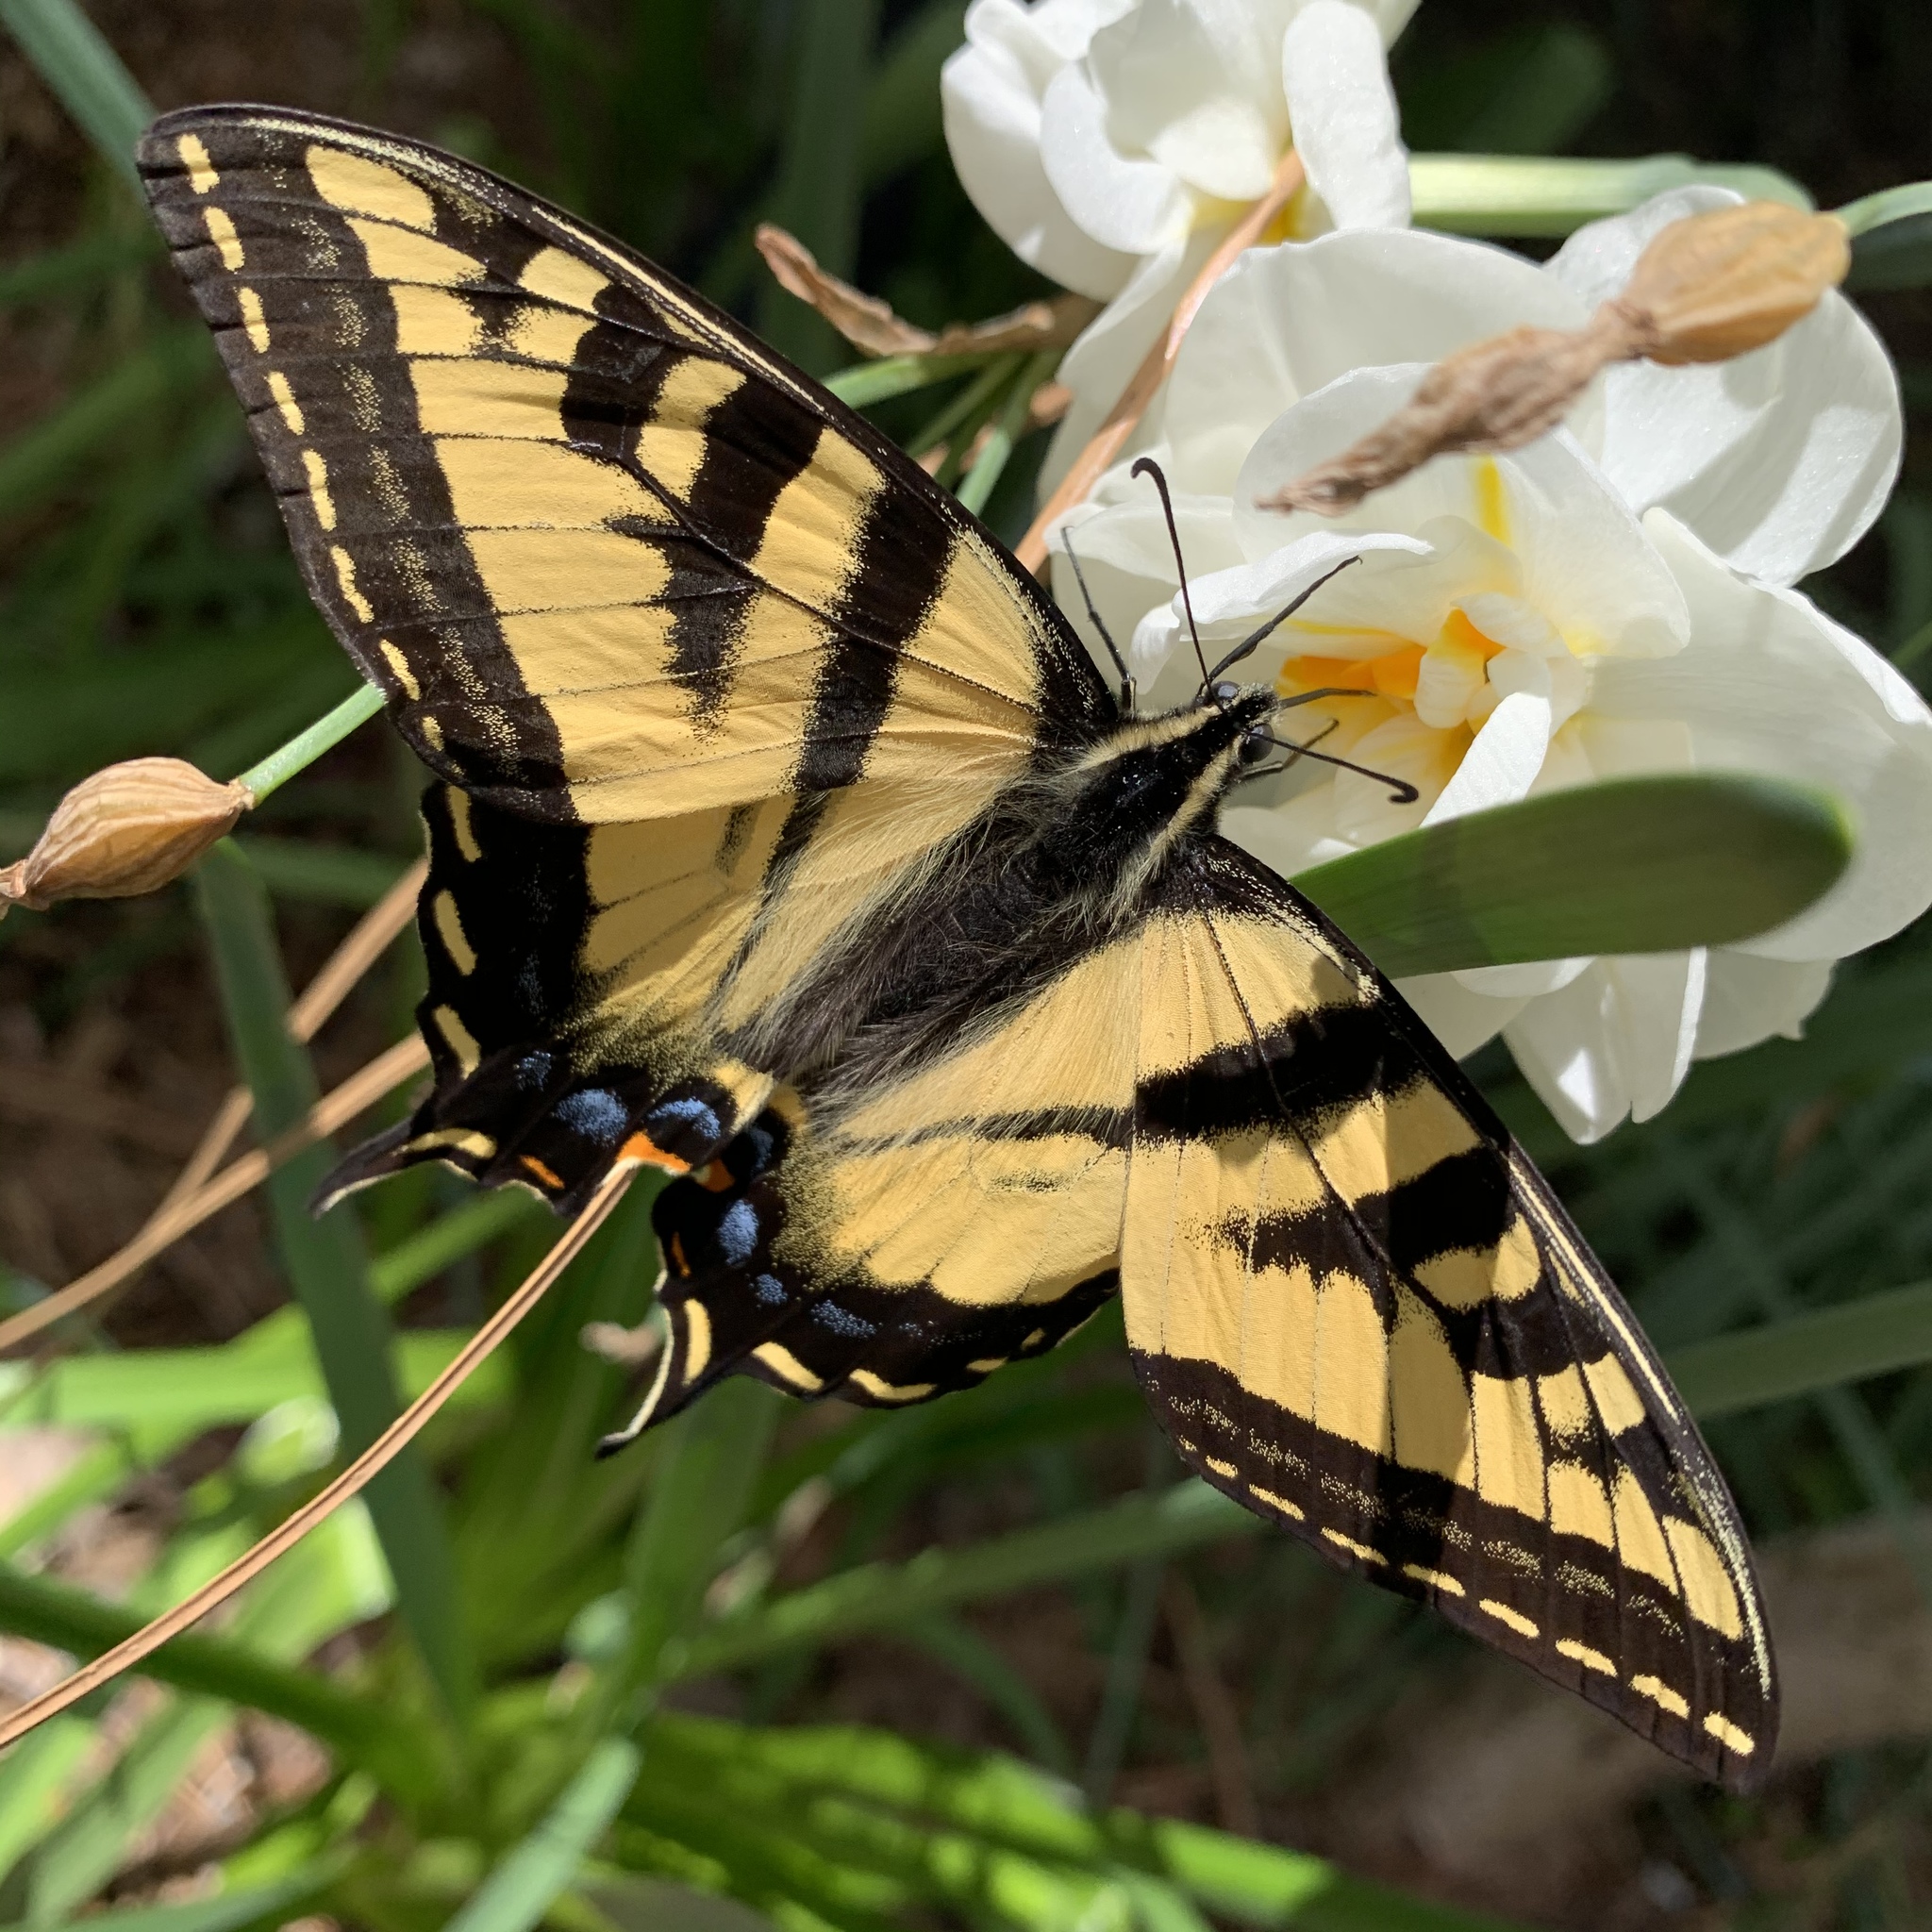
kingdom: Animalia
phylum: Arthropoda
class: Insecta
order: Lepidoptera
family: Papilionidae
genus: Papilio
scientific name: Papilio rutulus
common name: Western tiger swallowtail
